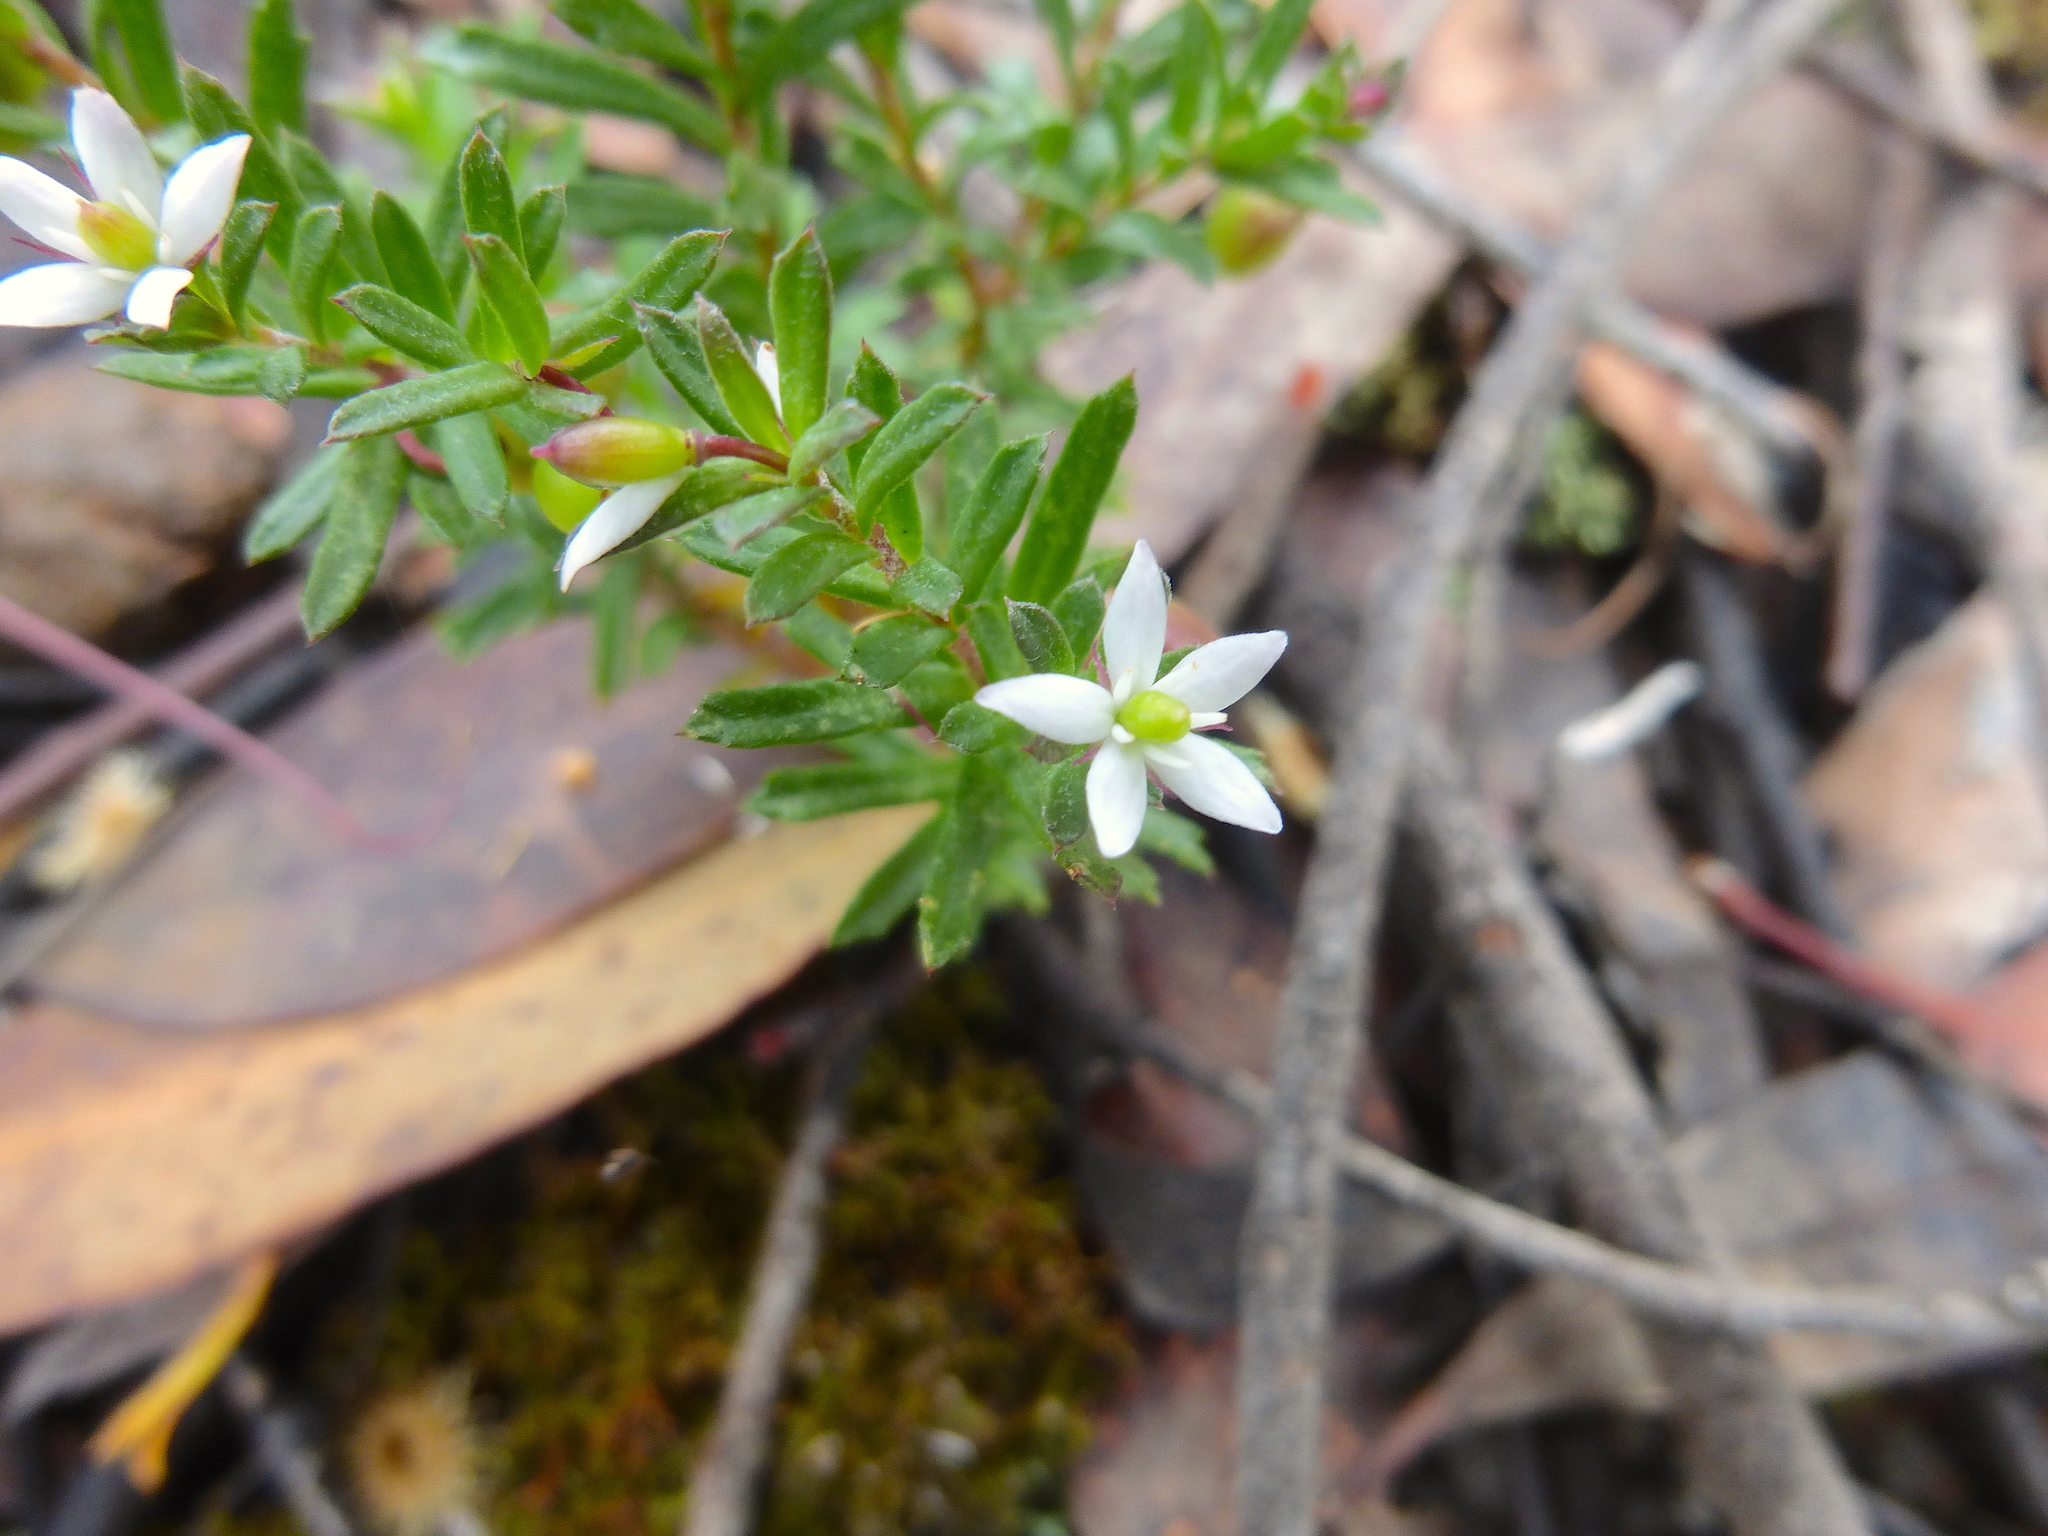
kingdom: Plantae
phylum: Tracheophyta
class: Magnoliopsida
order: Apiales
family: Pittosporaceae
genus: Rhytidosporum
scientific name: Rhytidosporum procumbens
